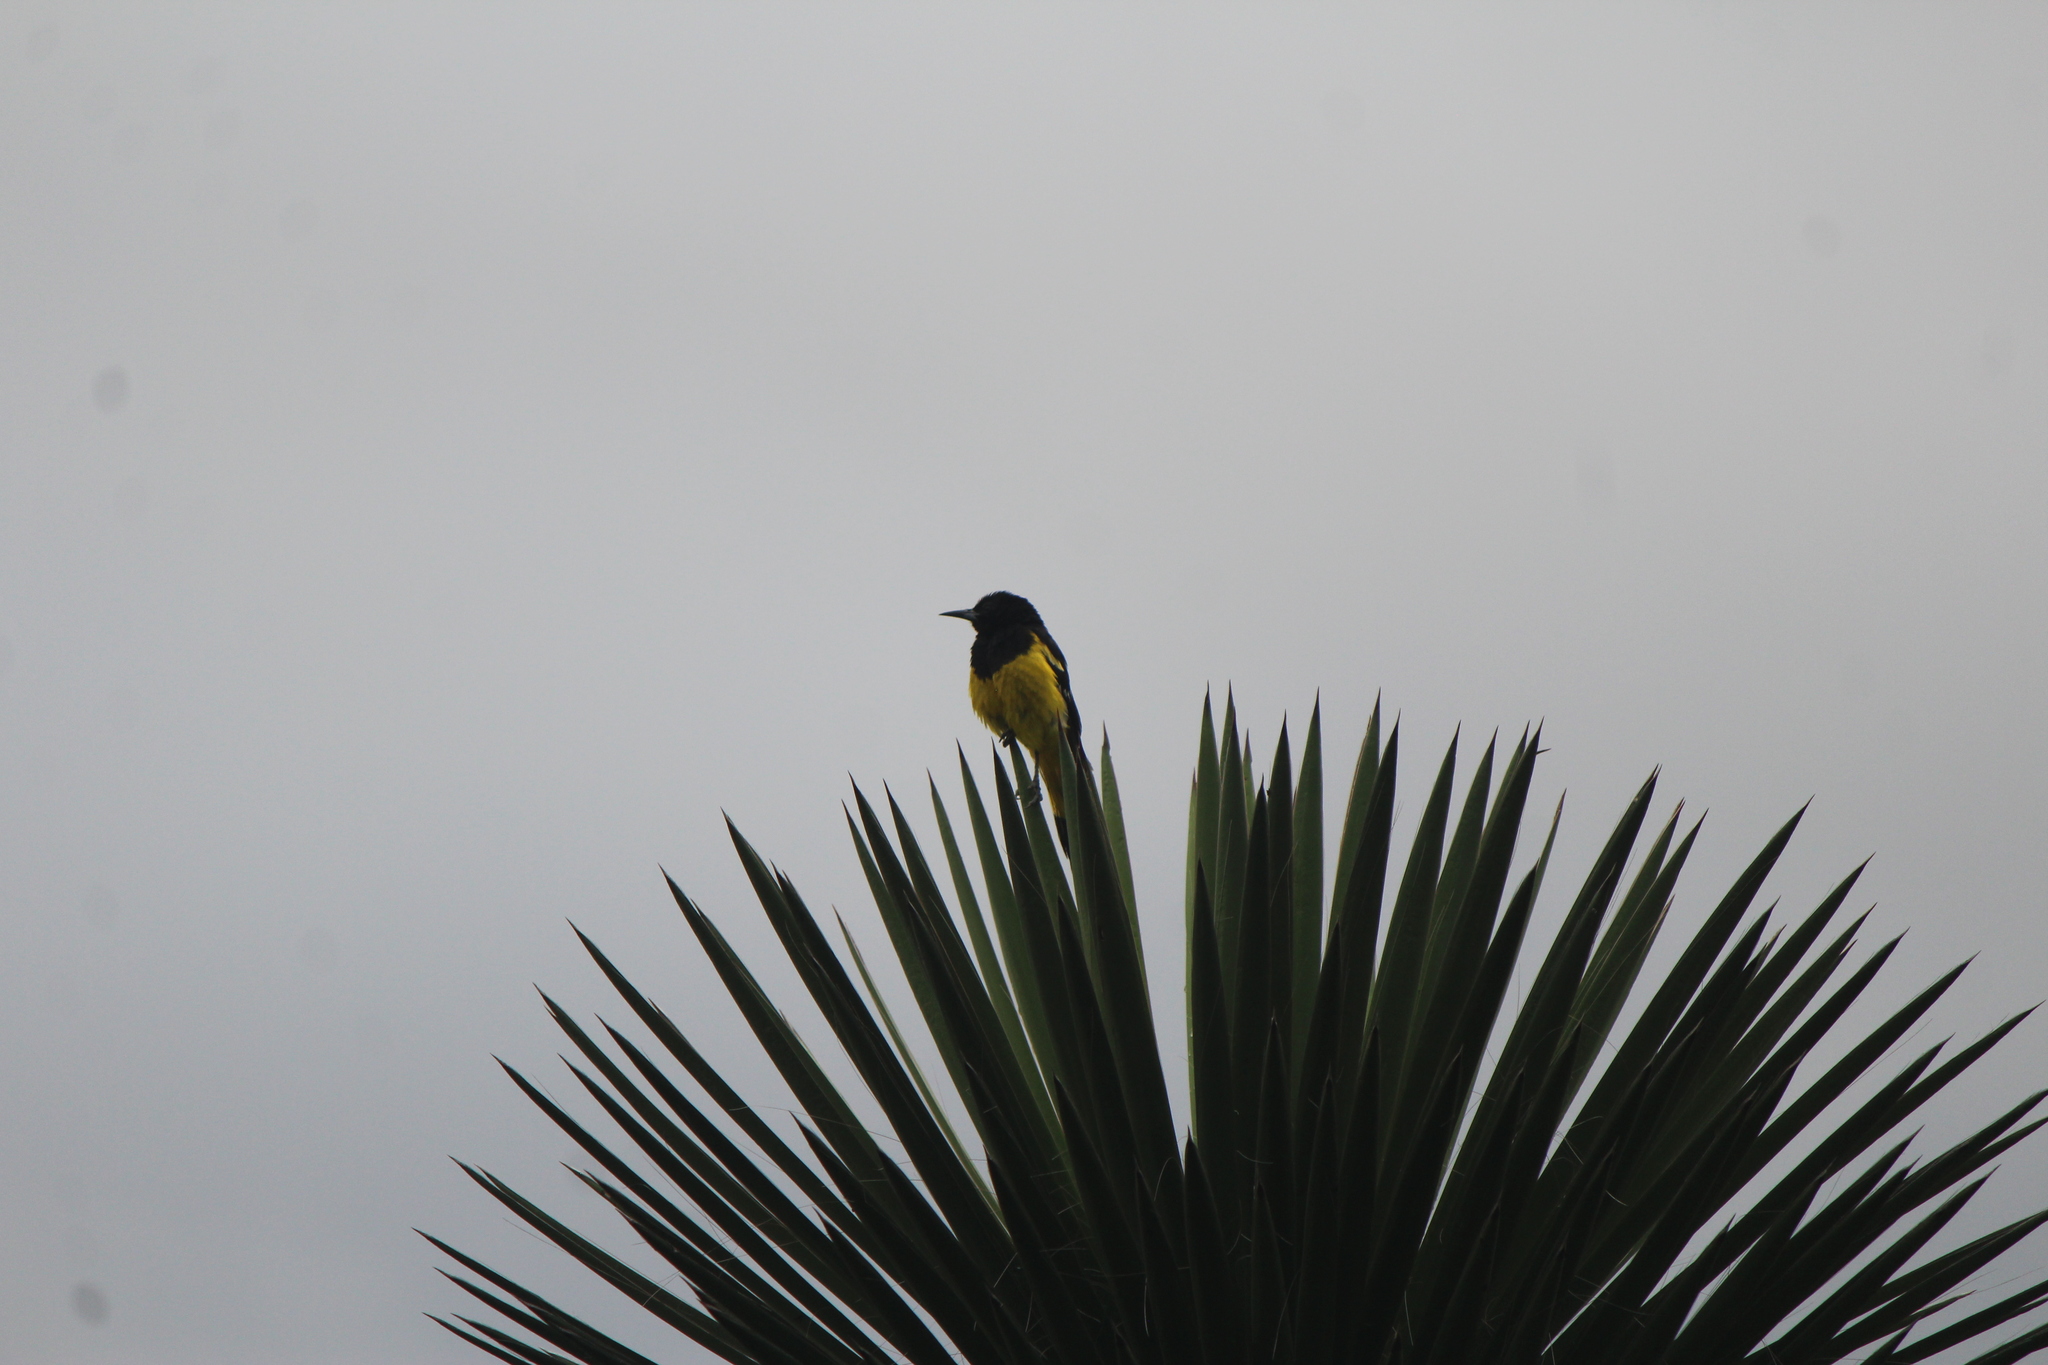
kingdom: Animalia
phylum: Chordata
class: Aves
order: Passeriformes
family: Icteridae
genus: Icterus
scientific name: Icterus parisorum
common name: Scott's oriole
